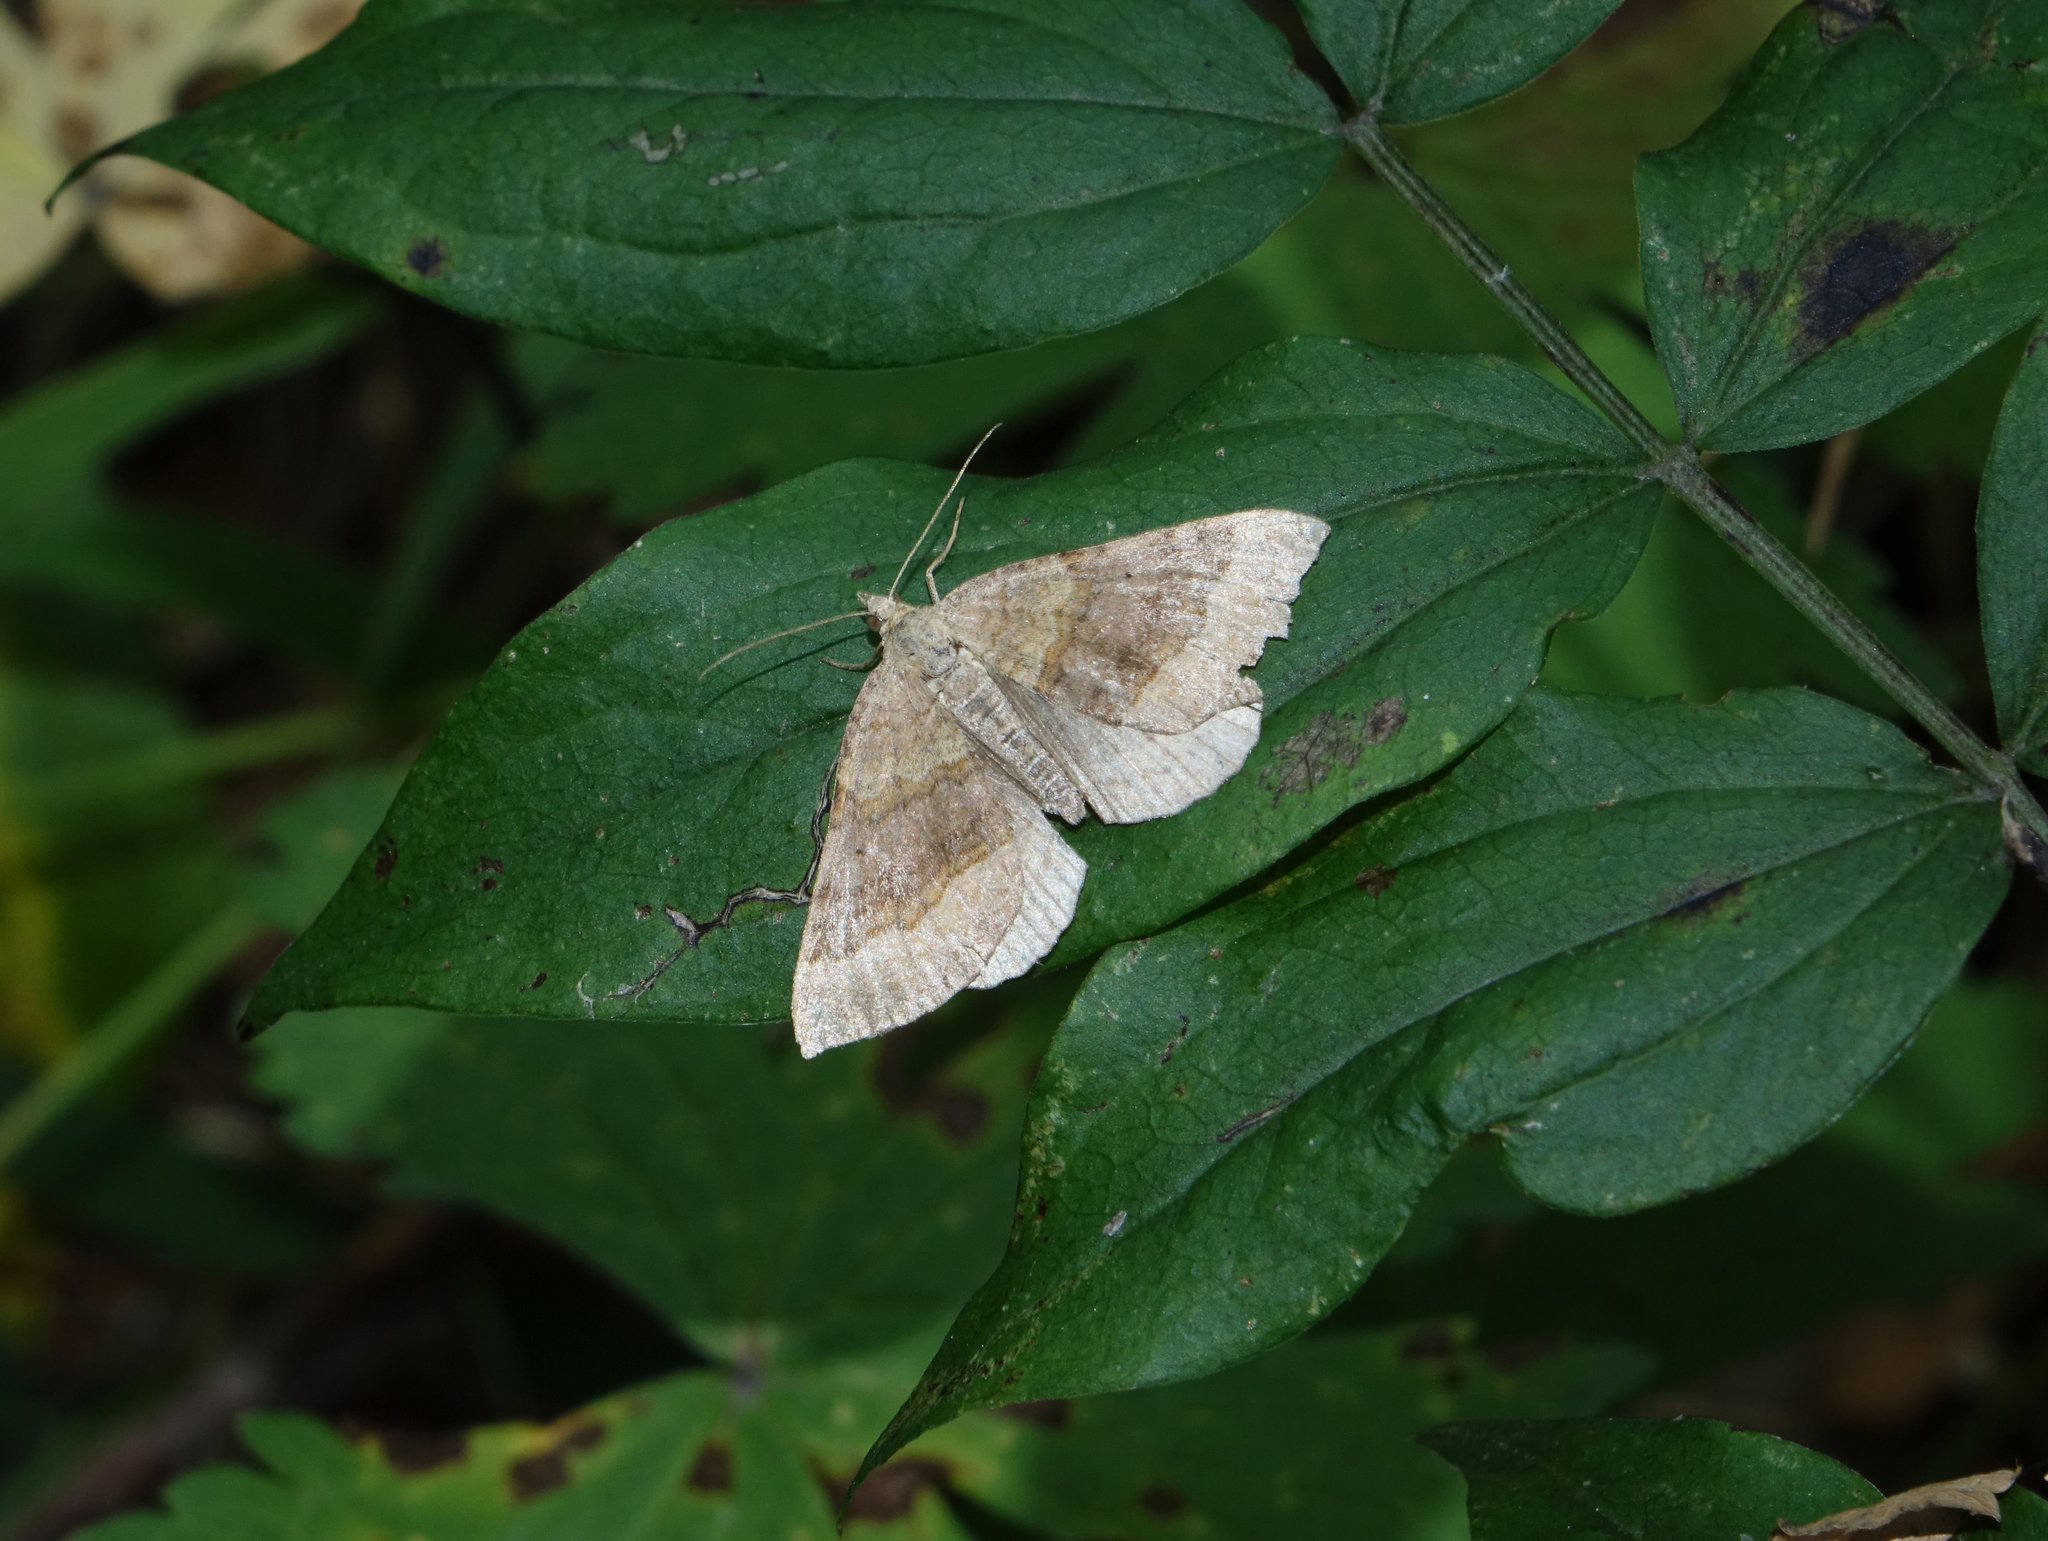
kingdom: Animalia
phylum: Arthropoda
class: Insecta
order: Lepidoptera
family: Geometridae
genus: Scotopteryx
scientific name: Scotopteryx chenopodiata
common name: Shaded broad-bar
